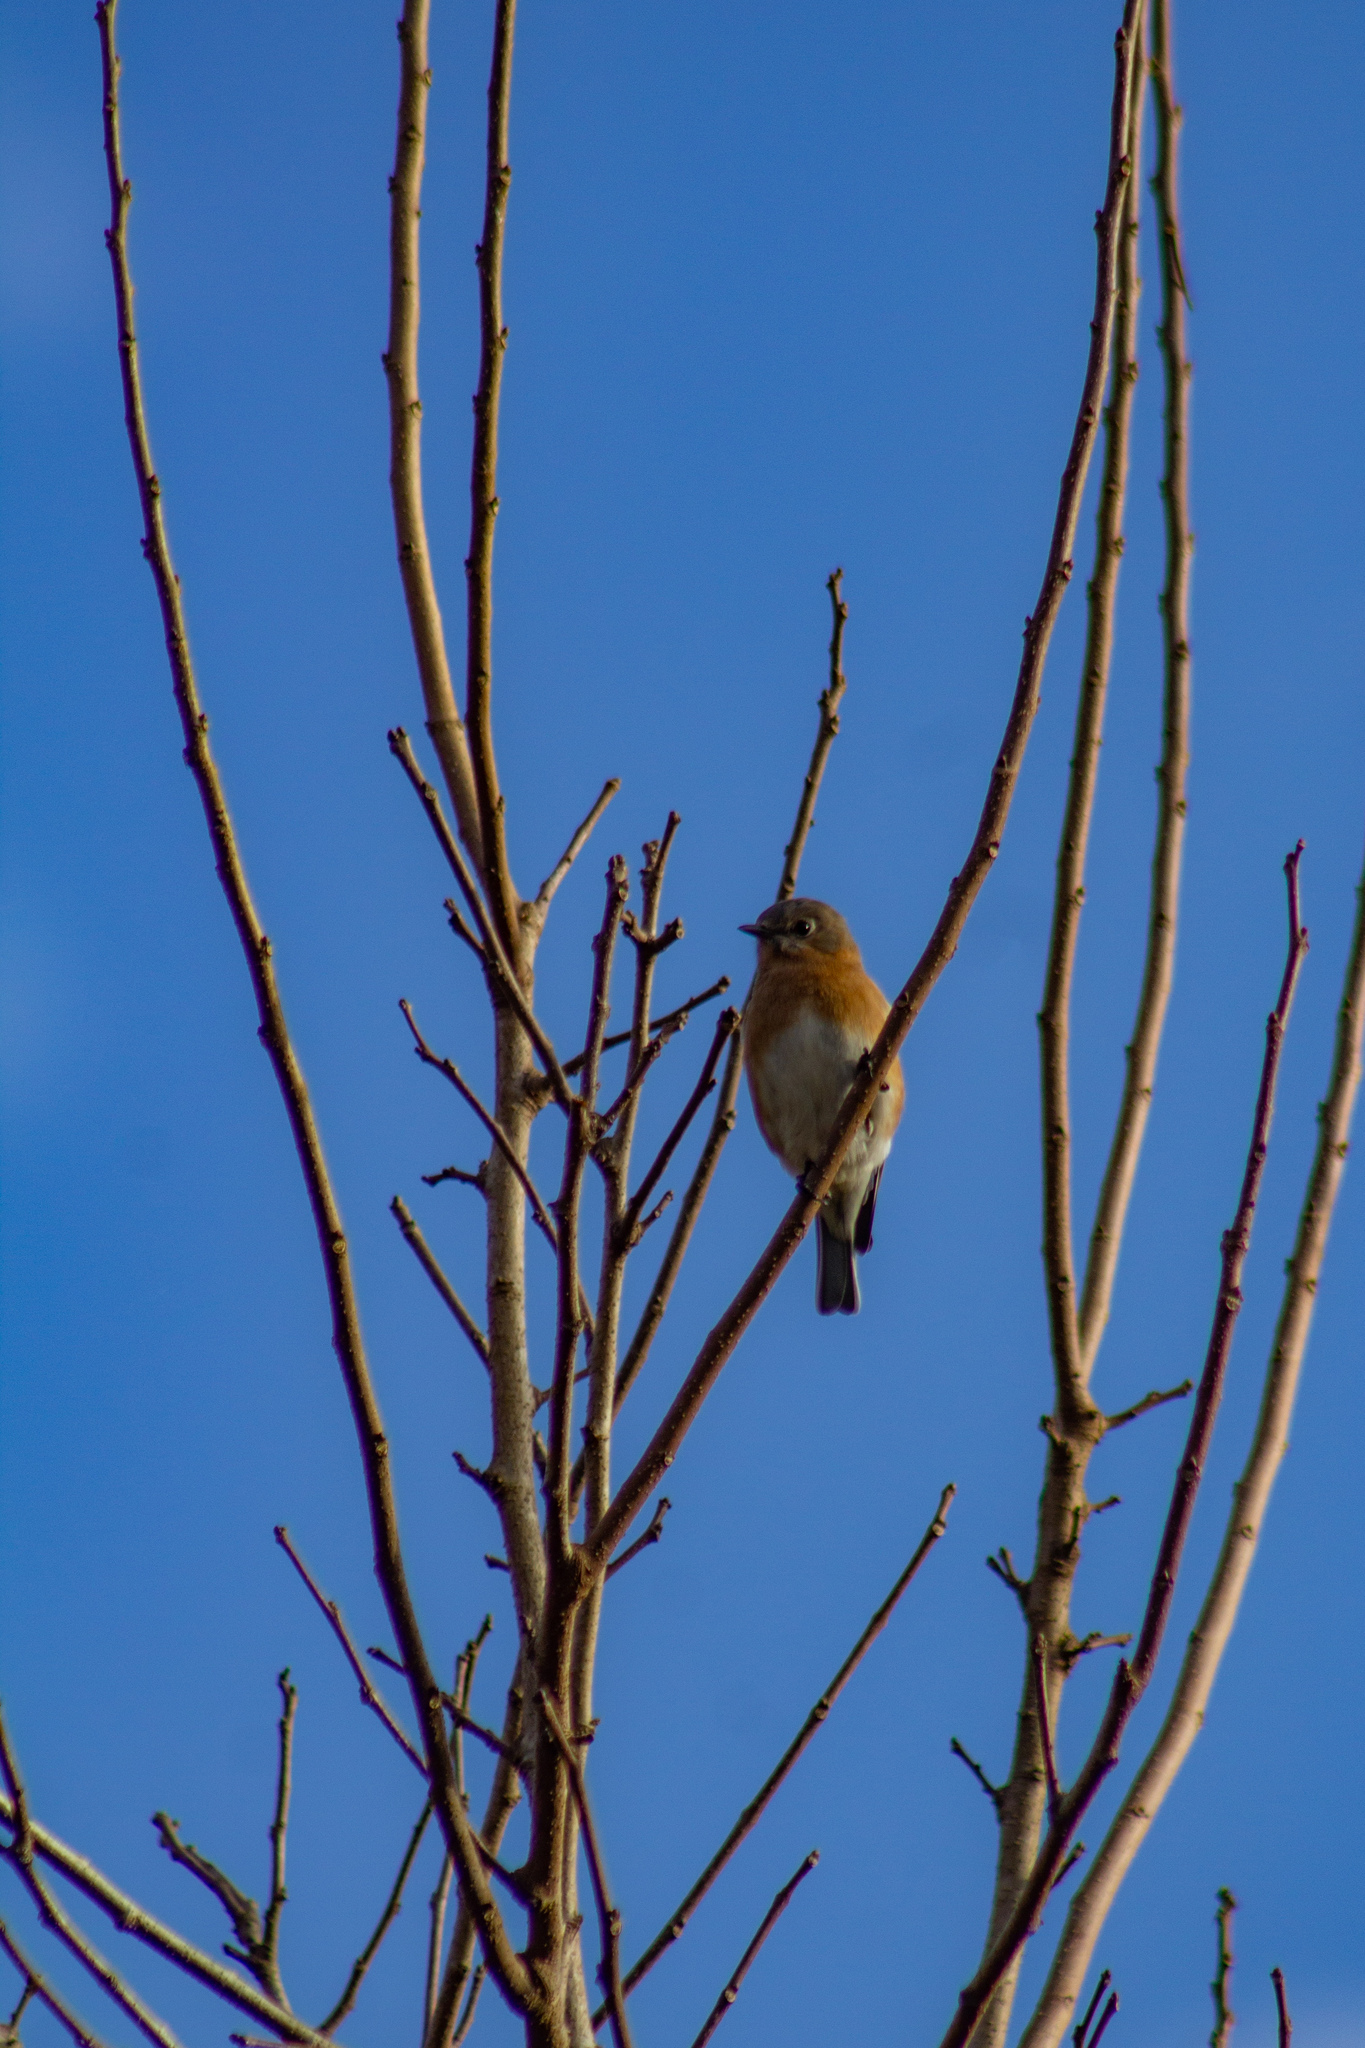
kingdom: Animalia
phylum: Chordata
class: Aves
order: Passeriformes
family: Turdidae
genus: Sialia
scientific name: Sialia sialis
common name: Eastern bluebird
